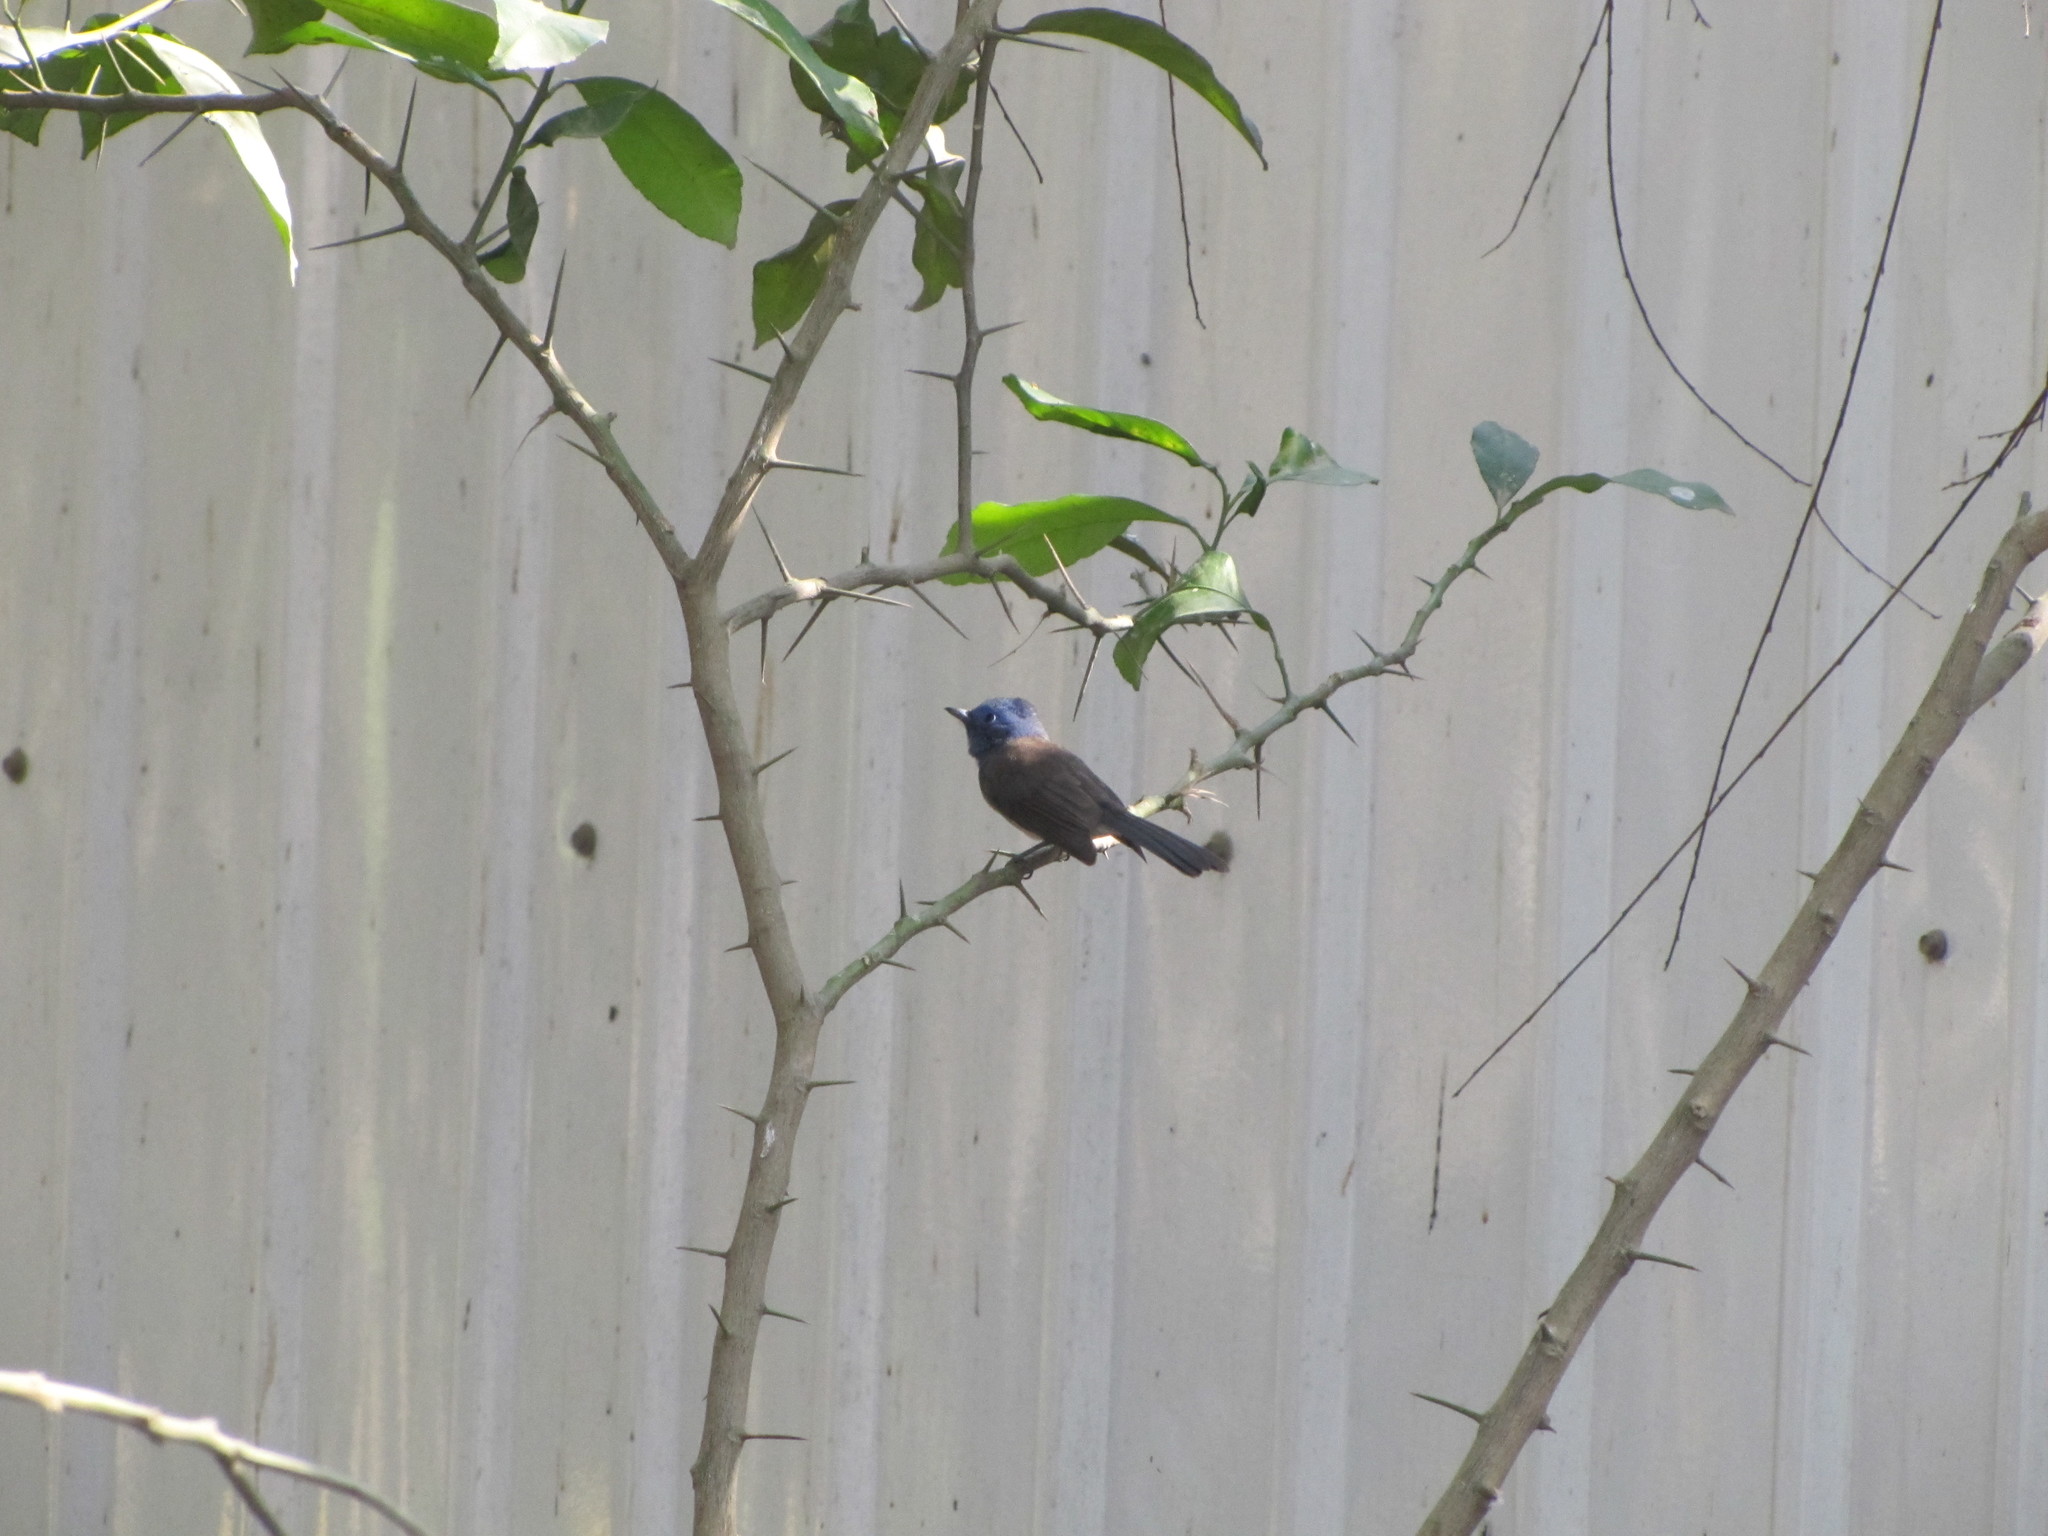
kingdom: Animalia
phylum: Chordata
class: Aves
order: Passeriformes
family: Monarchidae
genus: Hypothymis
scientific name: Hypothymis azurea
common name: Black-naped monarch
